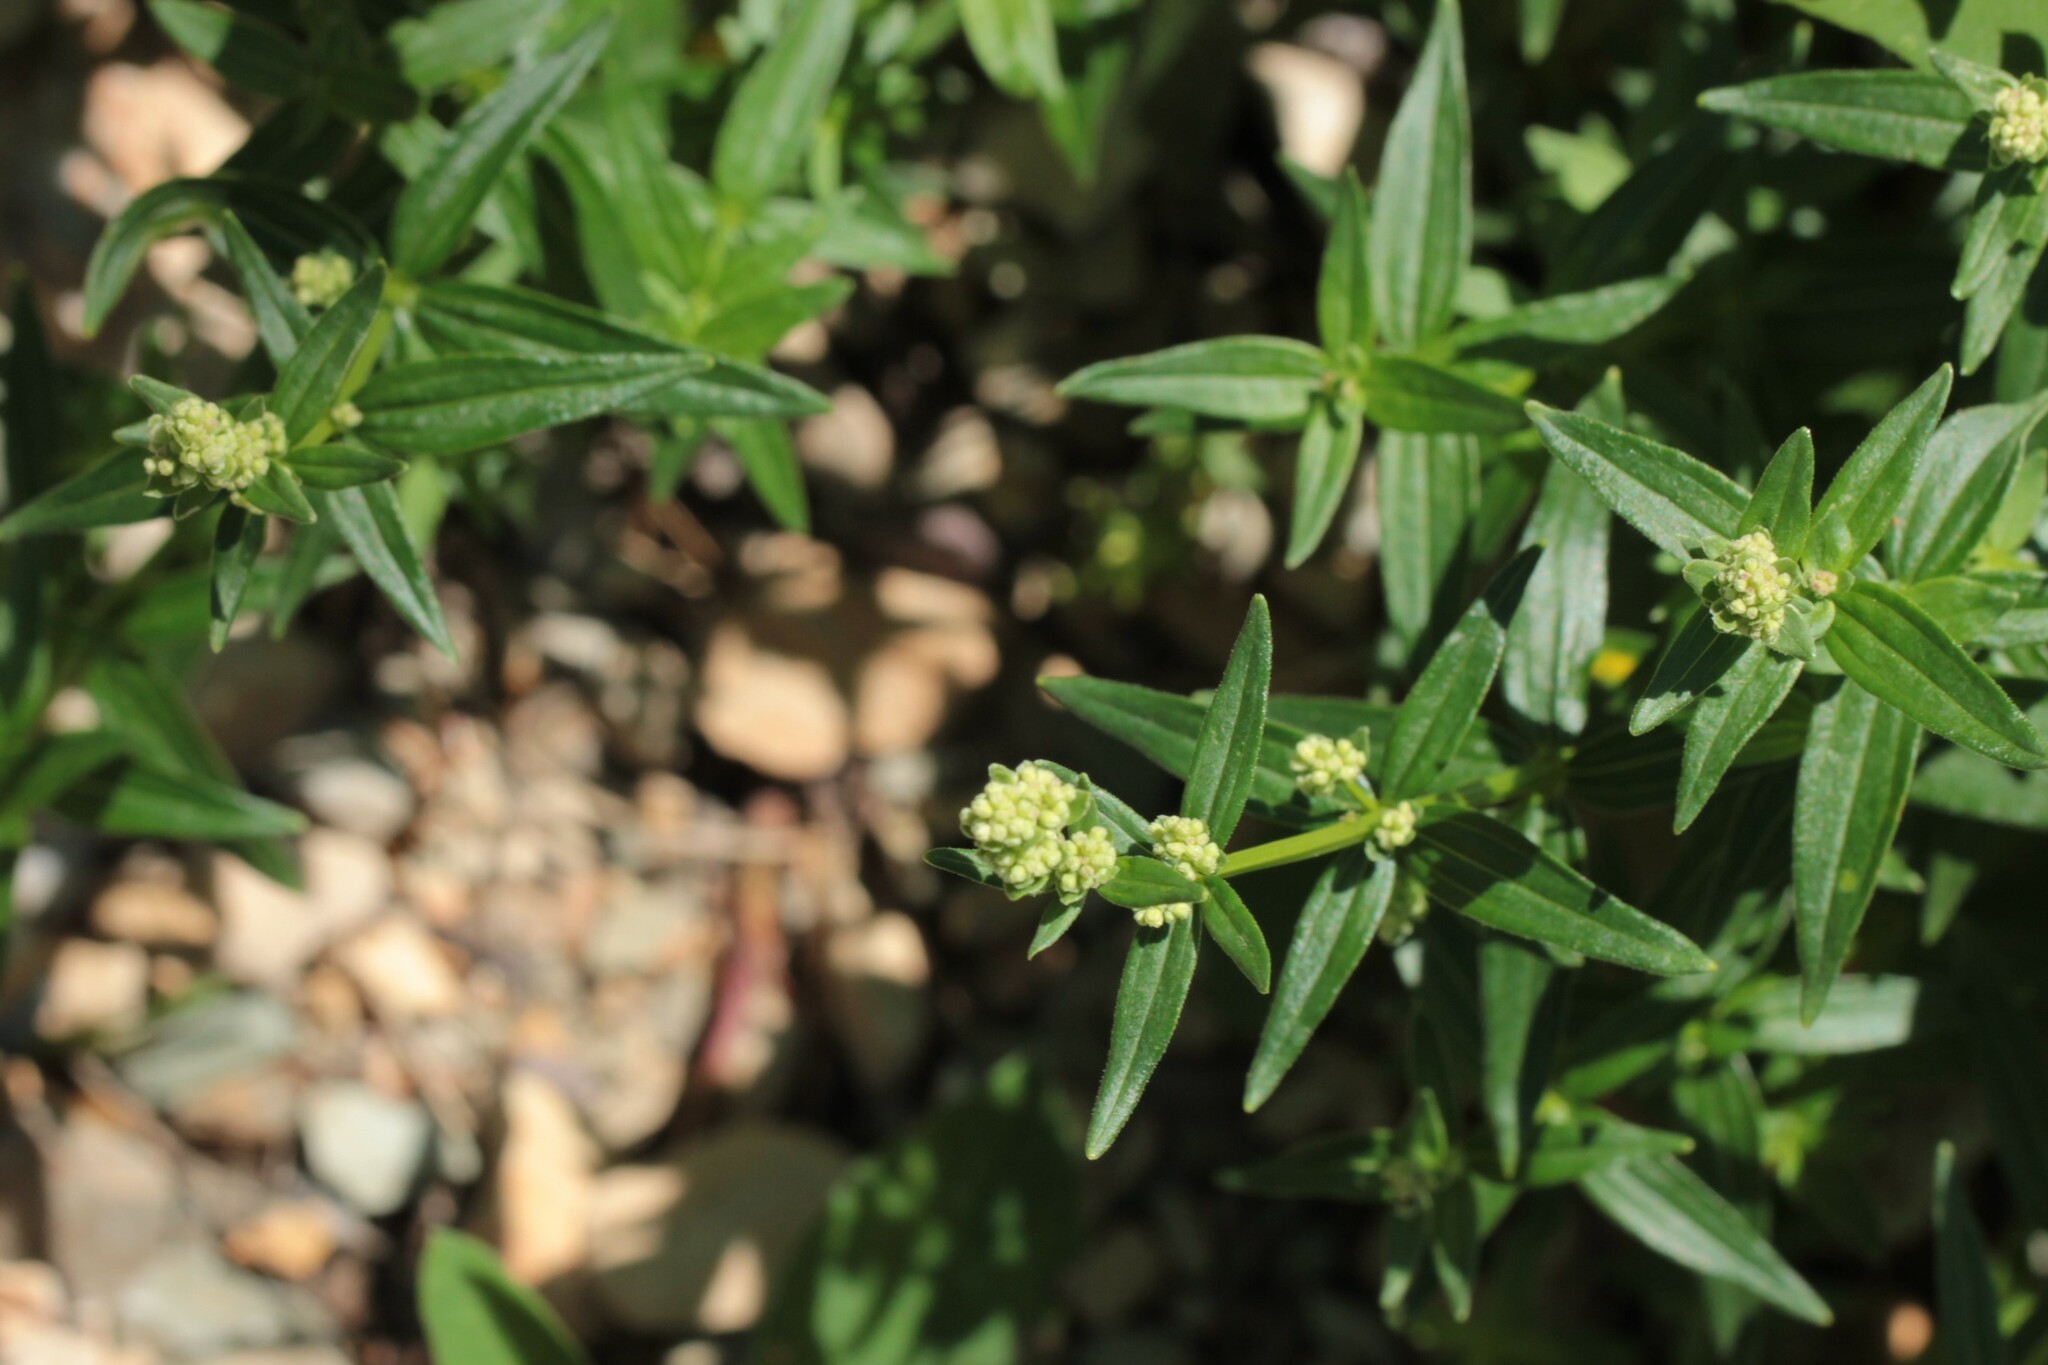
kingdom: Plantae
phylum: Tracheophyta
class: Magnoliopsida
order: Gentianales
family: Rubiaceae
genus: Galium
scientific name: Galium boreale
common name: Northern bedstraw
